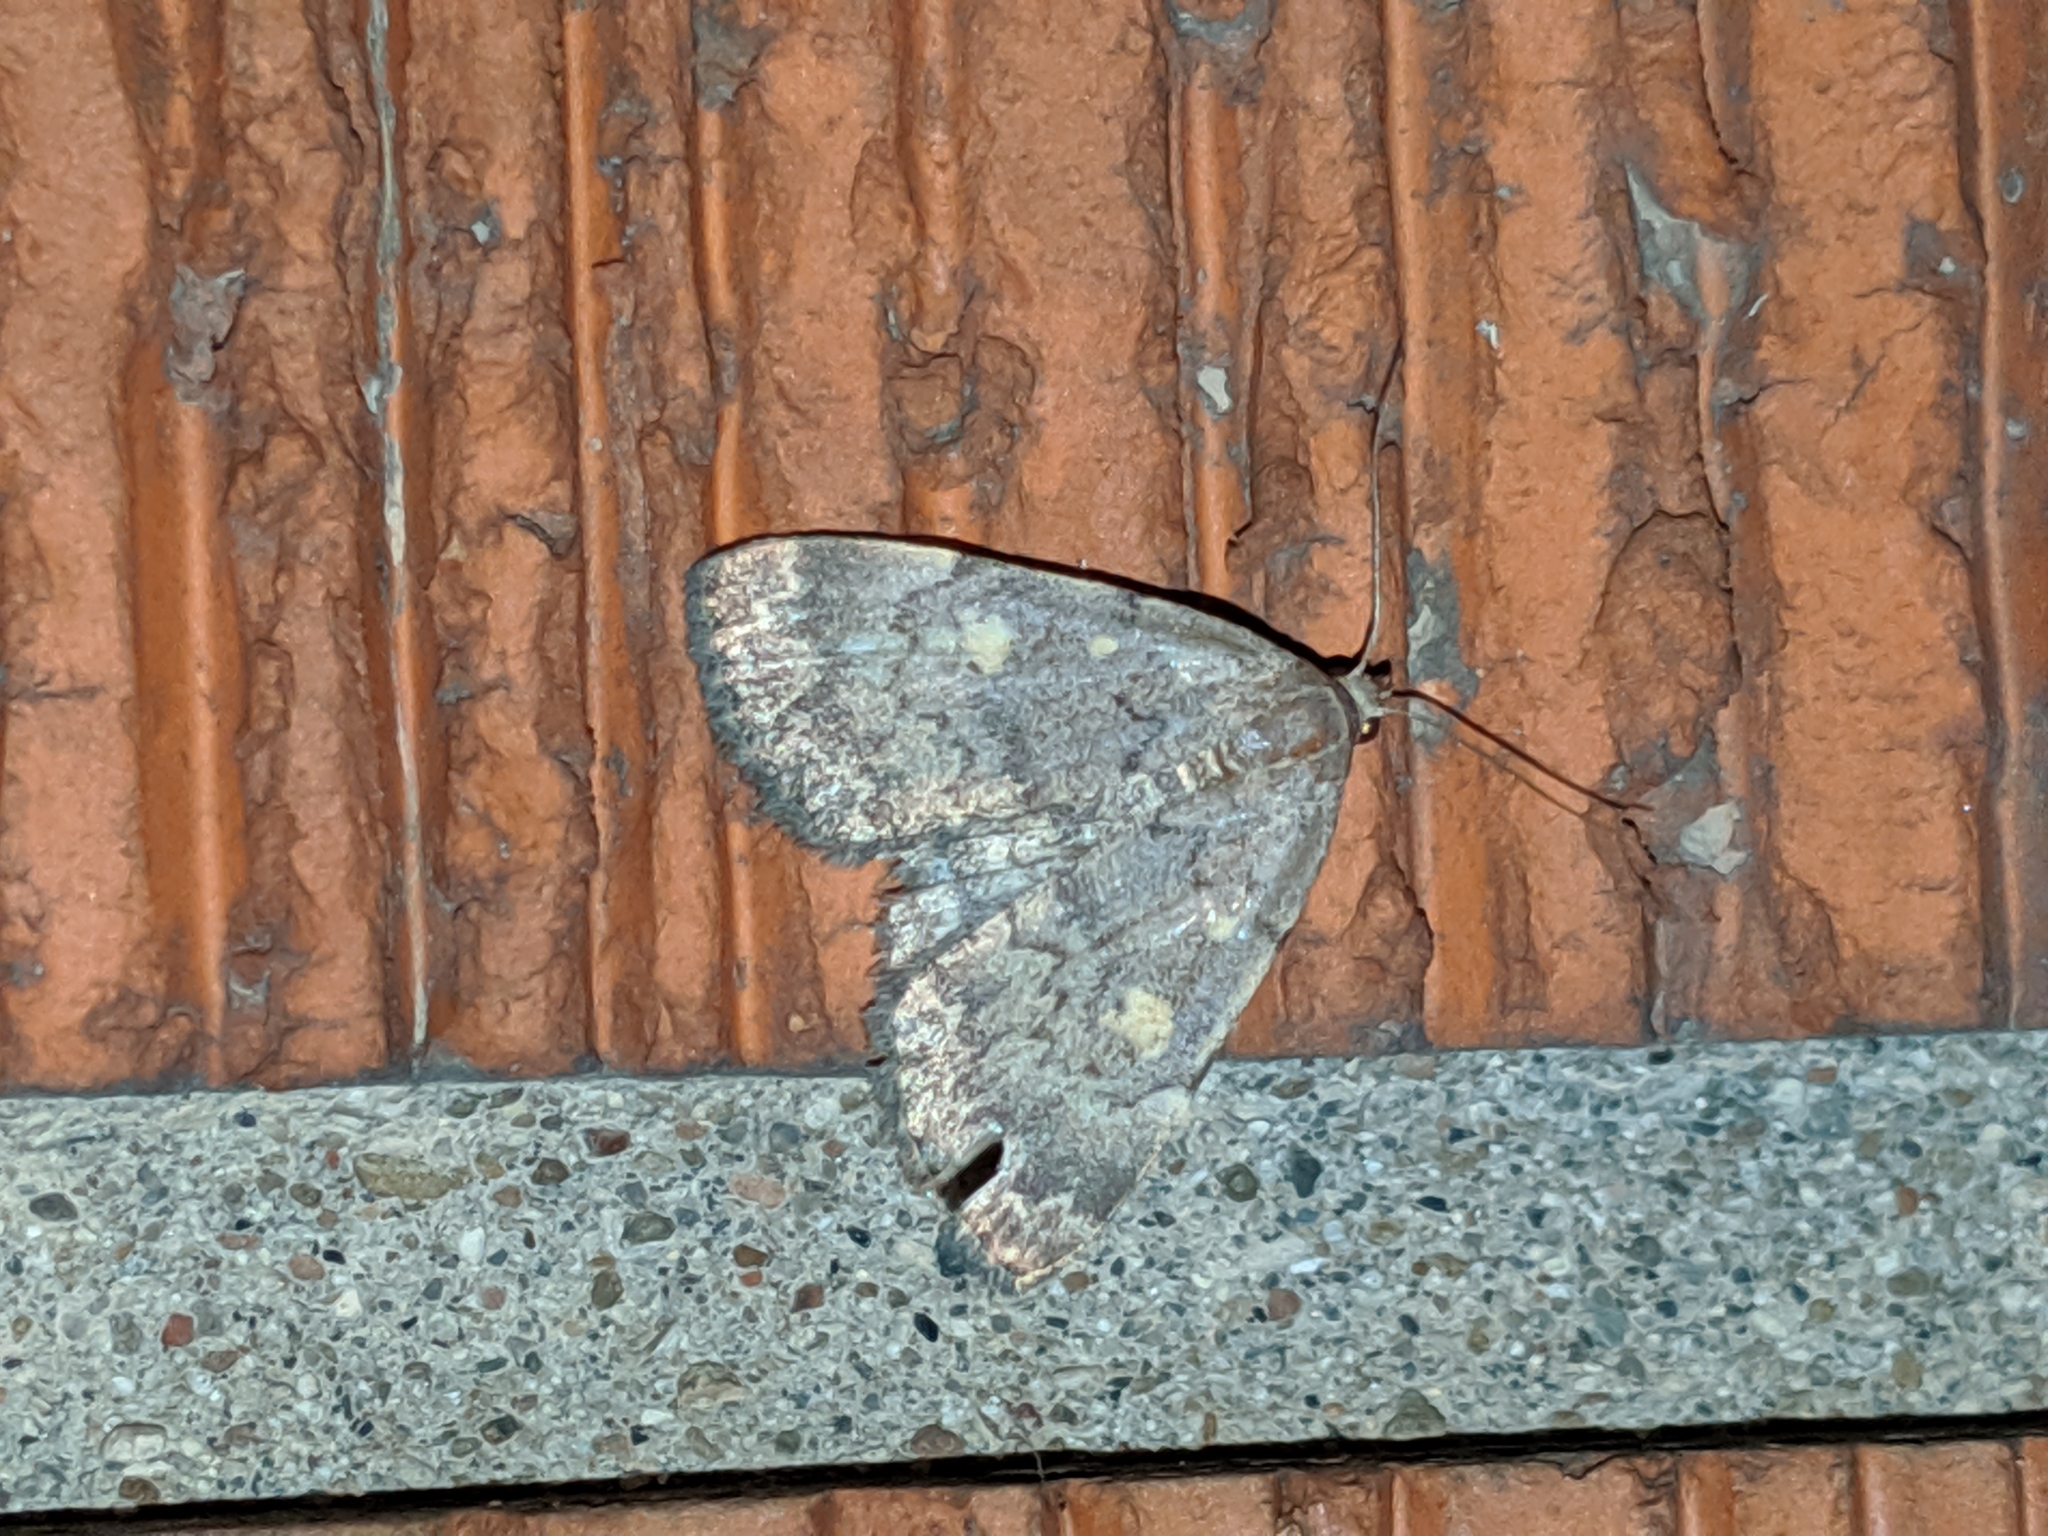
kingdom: Animalia
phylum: Arthropoda
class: Insecta
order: Lepidoptera
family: Erebidae
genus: Idia
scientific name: Idia aemula
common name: Common idia moth
